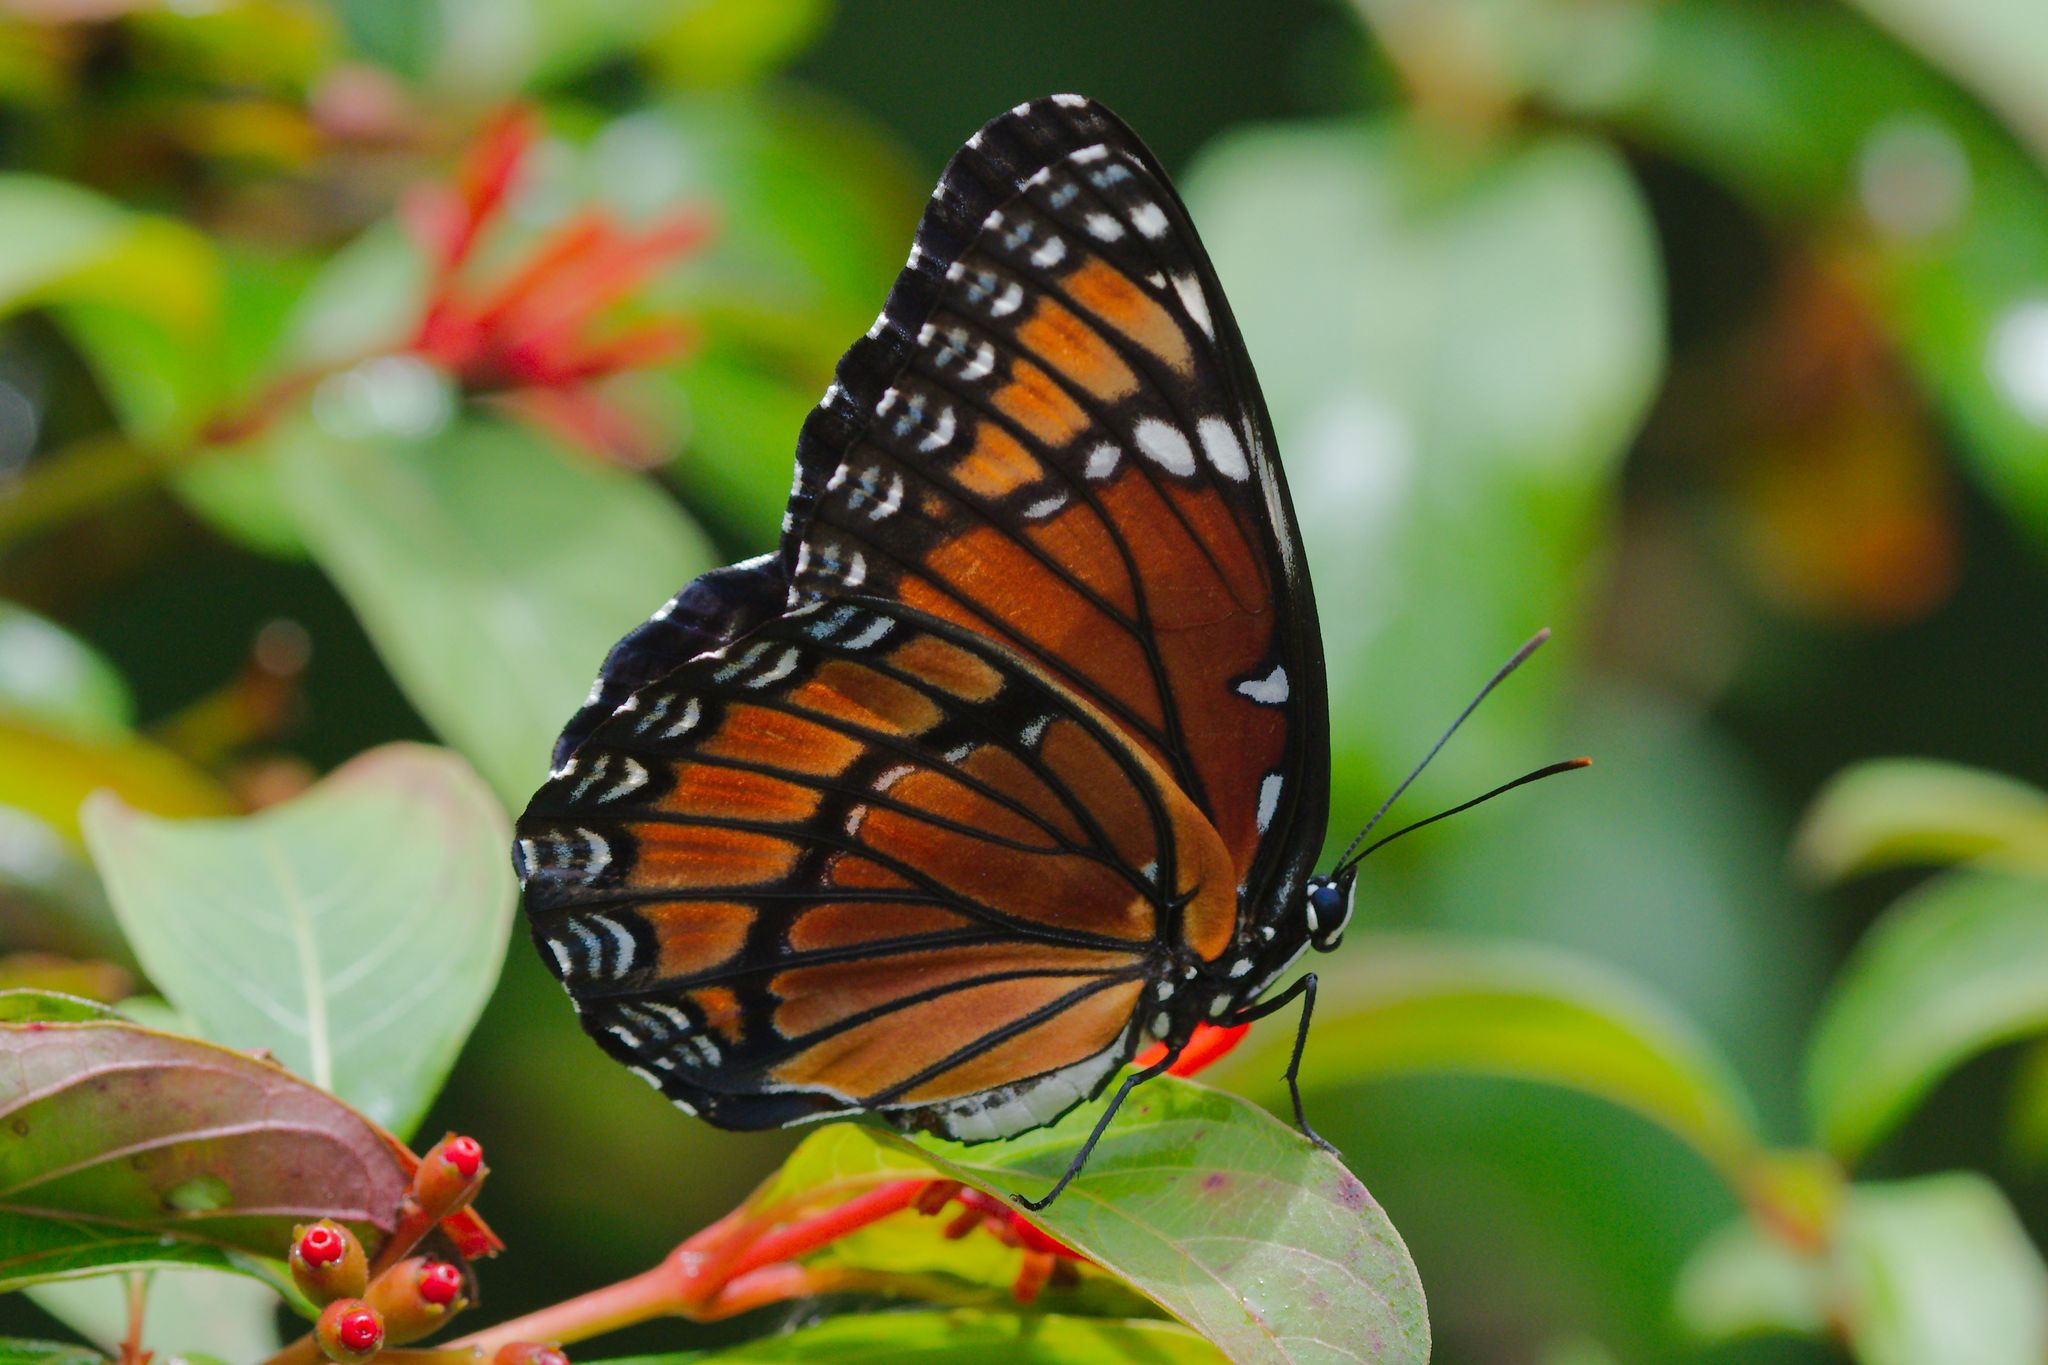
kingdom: Animalia
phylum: Arthropoda
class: Insecta
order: Lepidoptera
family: Nymphalidae
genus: Limenitis
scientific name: Limenitis archippus
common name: Viceroy
